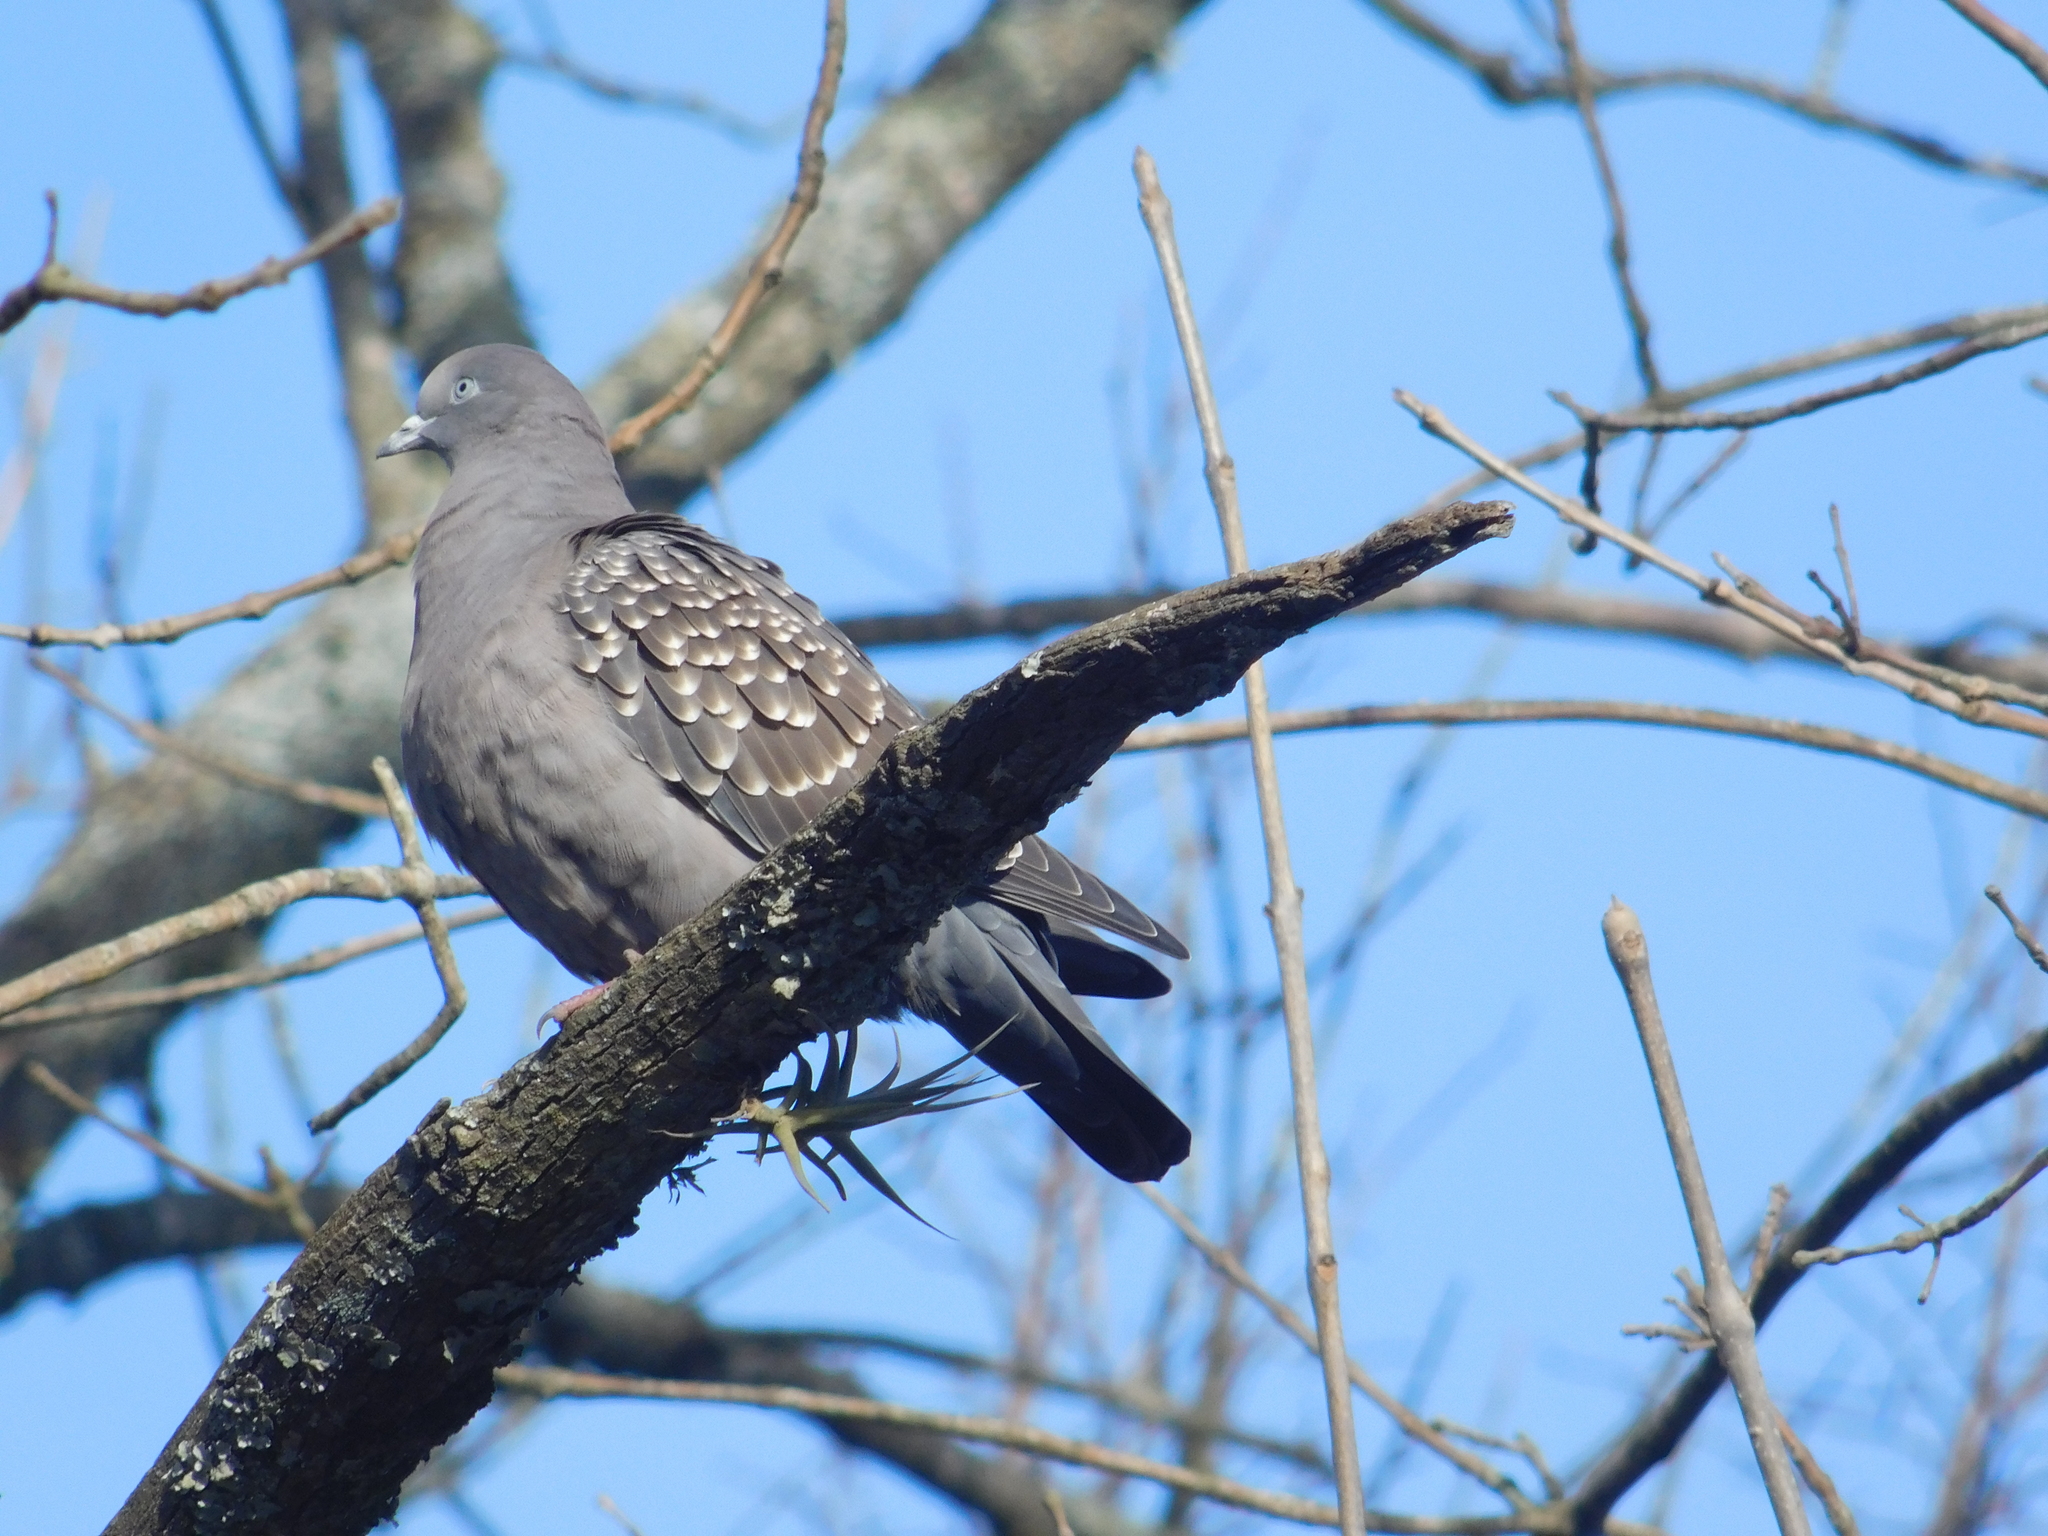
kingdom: Animalia
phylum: Chordata
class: Aves
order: Columbiformes
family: Columbidae
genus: Patagioenas
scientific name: Patagioenas maculosa
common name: Spot-winged pigeon
